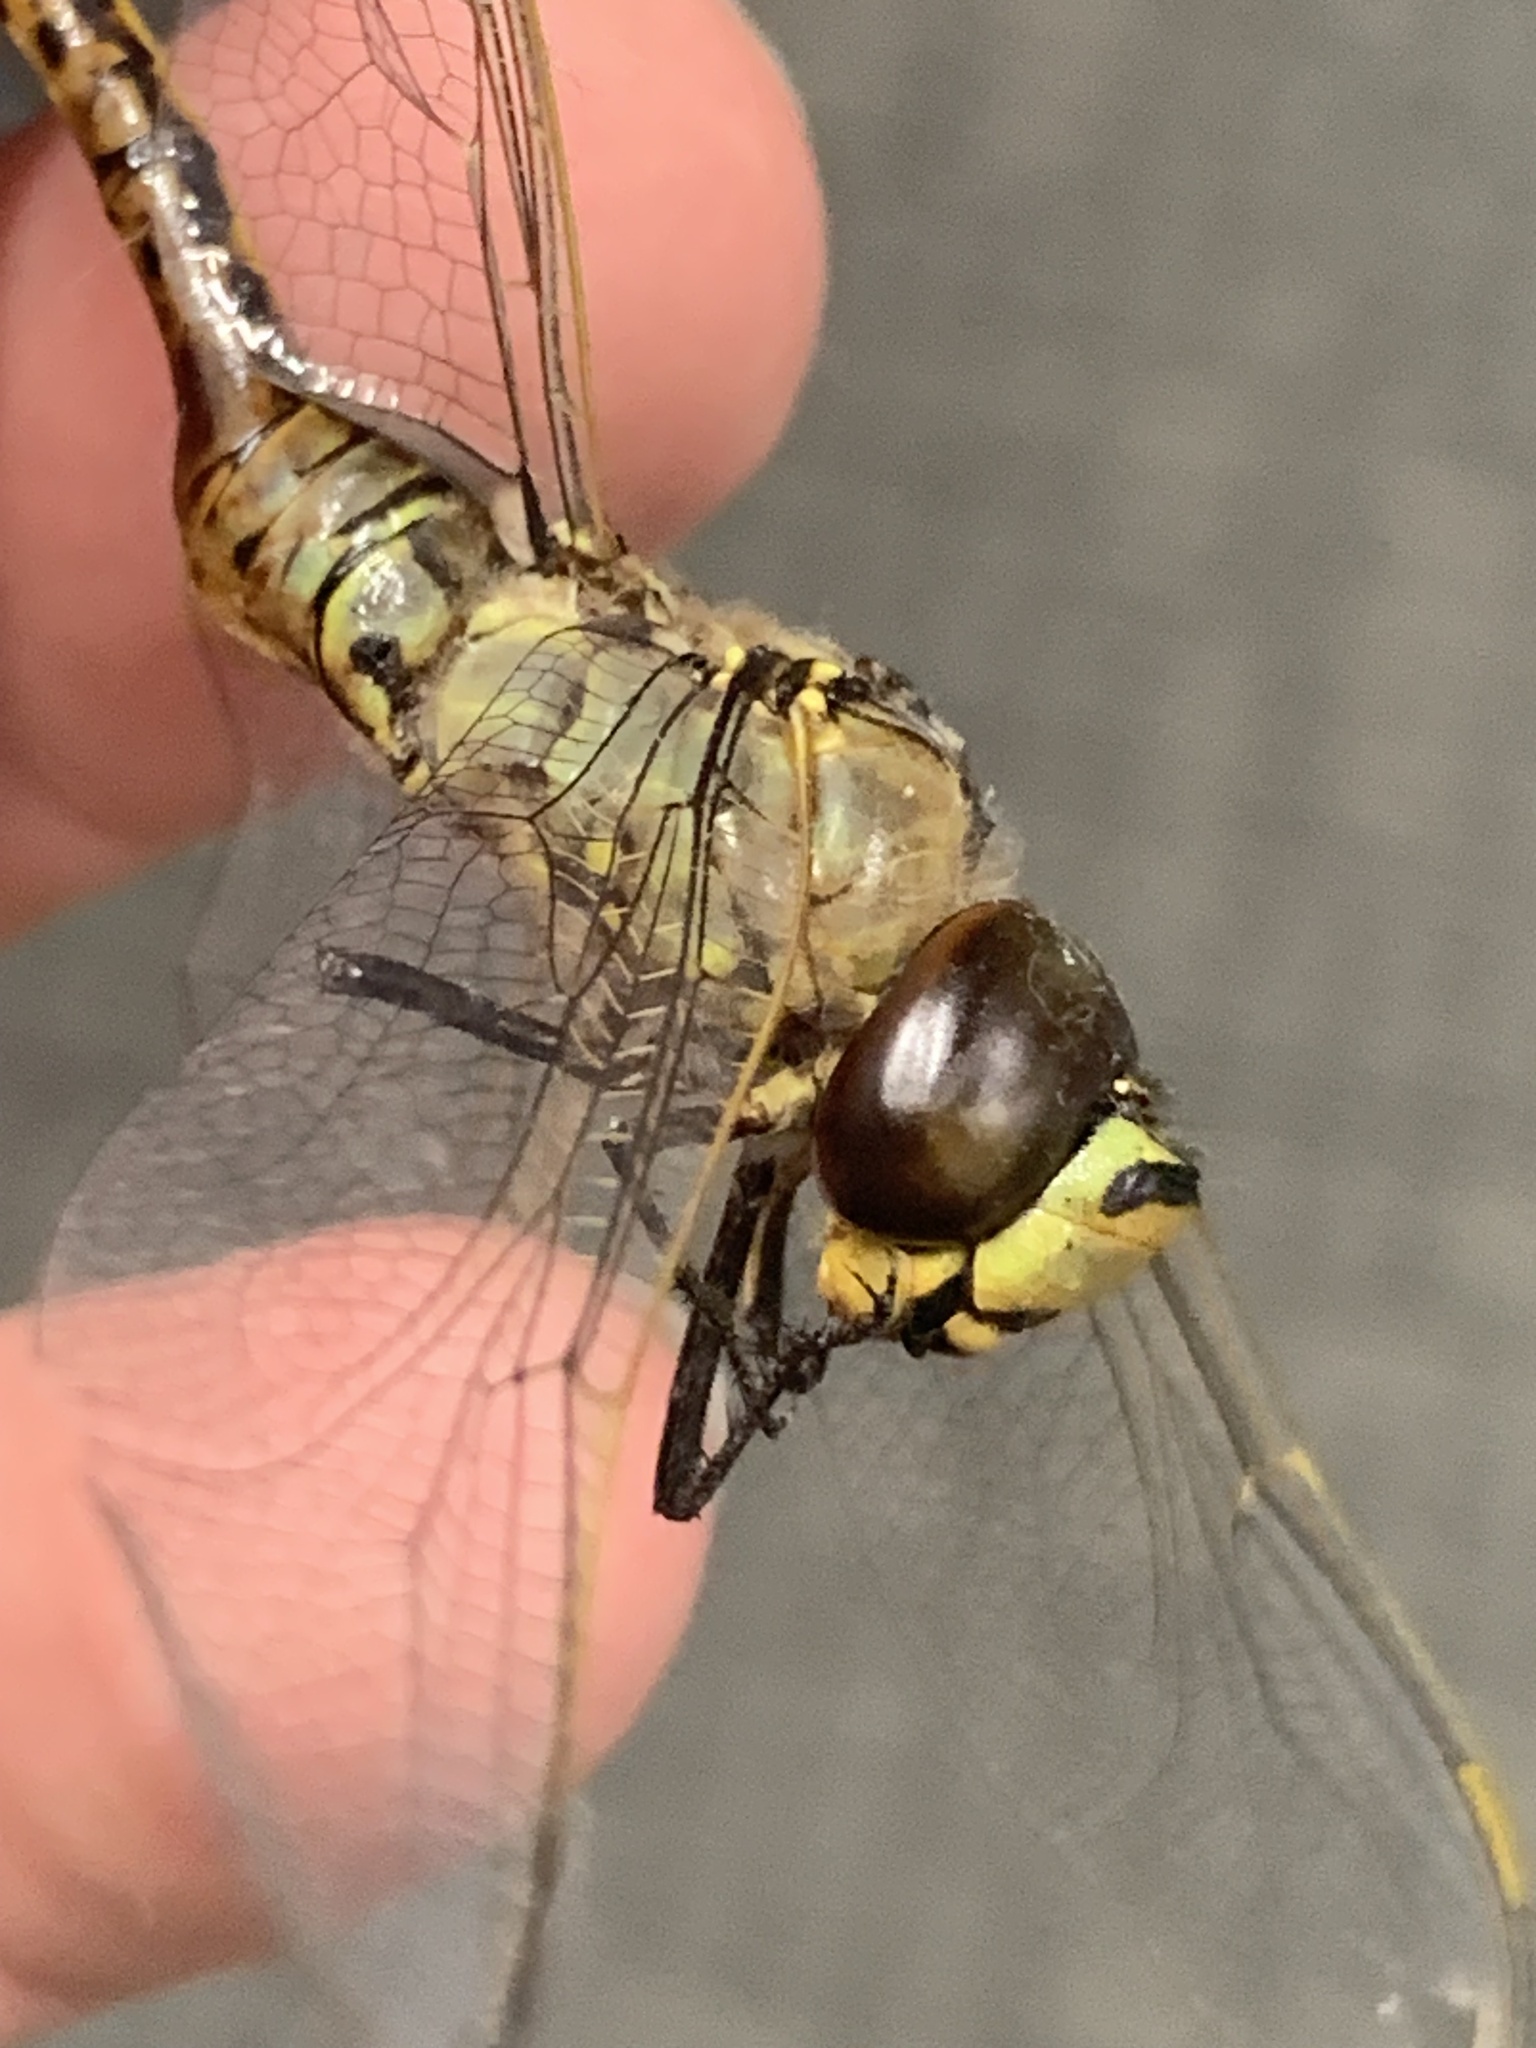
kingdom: Animalia
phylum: Arthropoda
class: Insecta
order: Odonata
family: Aeshnidae
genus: Anax
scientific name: Anax papuensis
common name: Australian emperor
